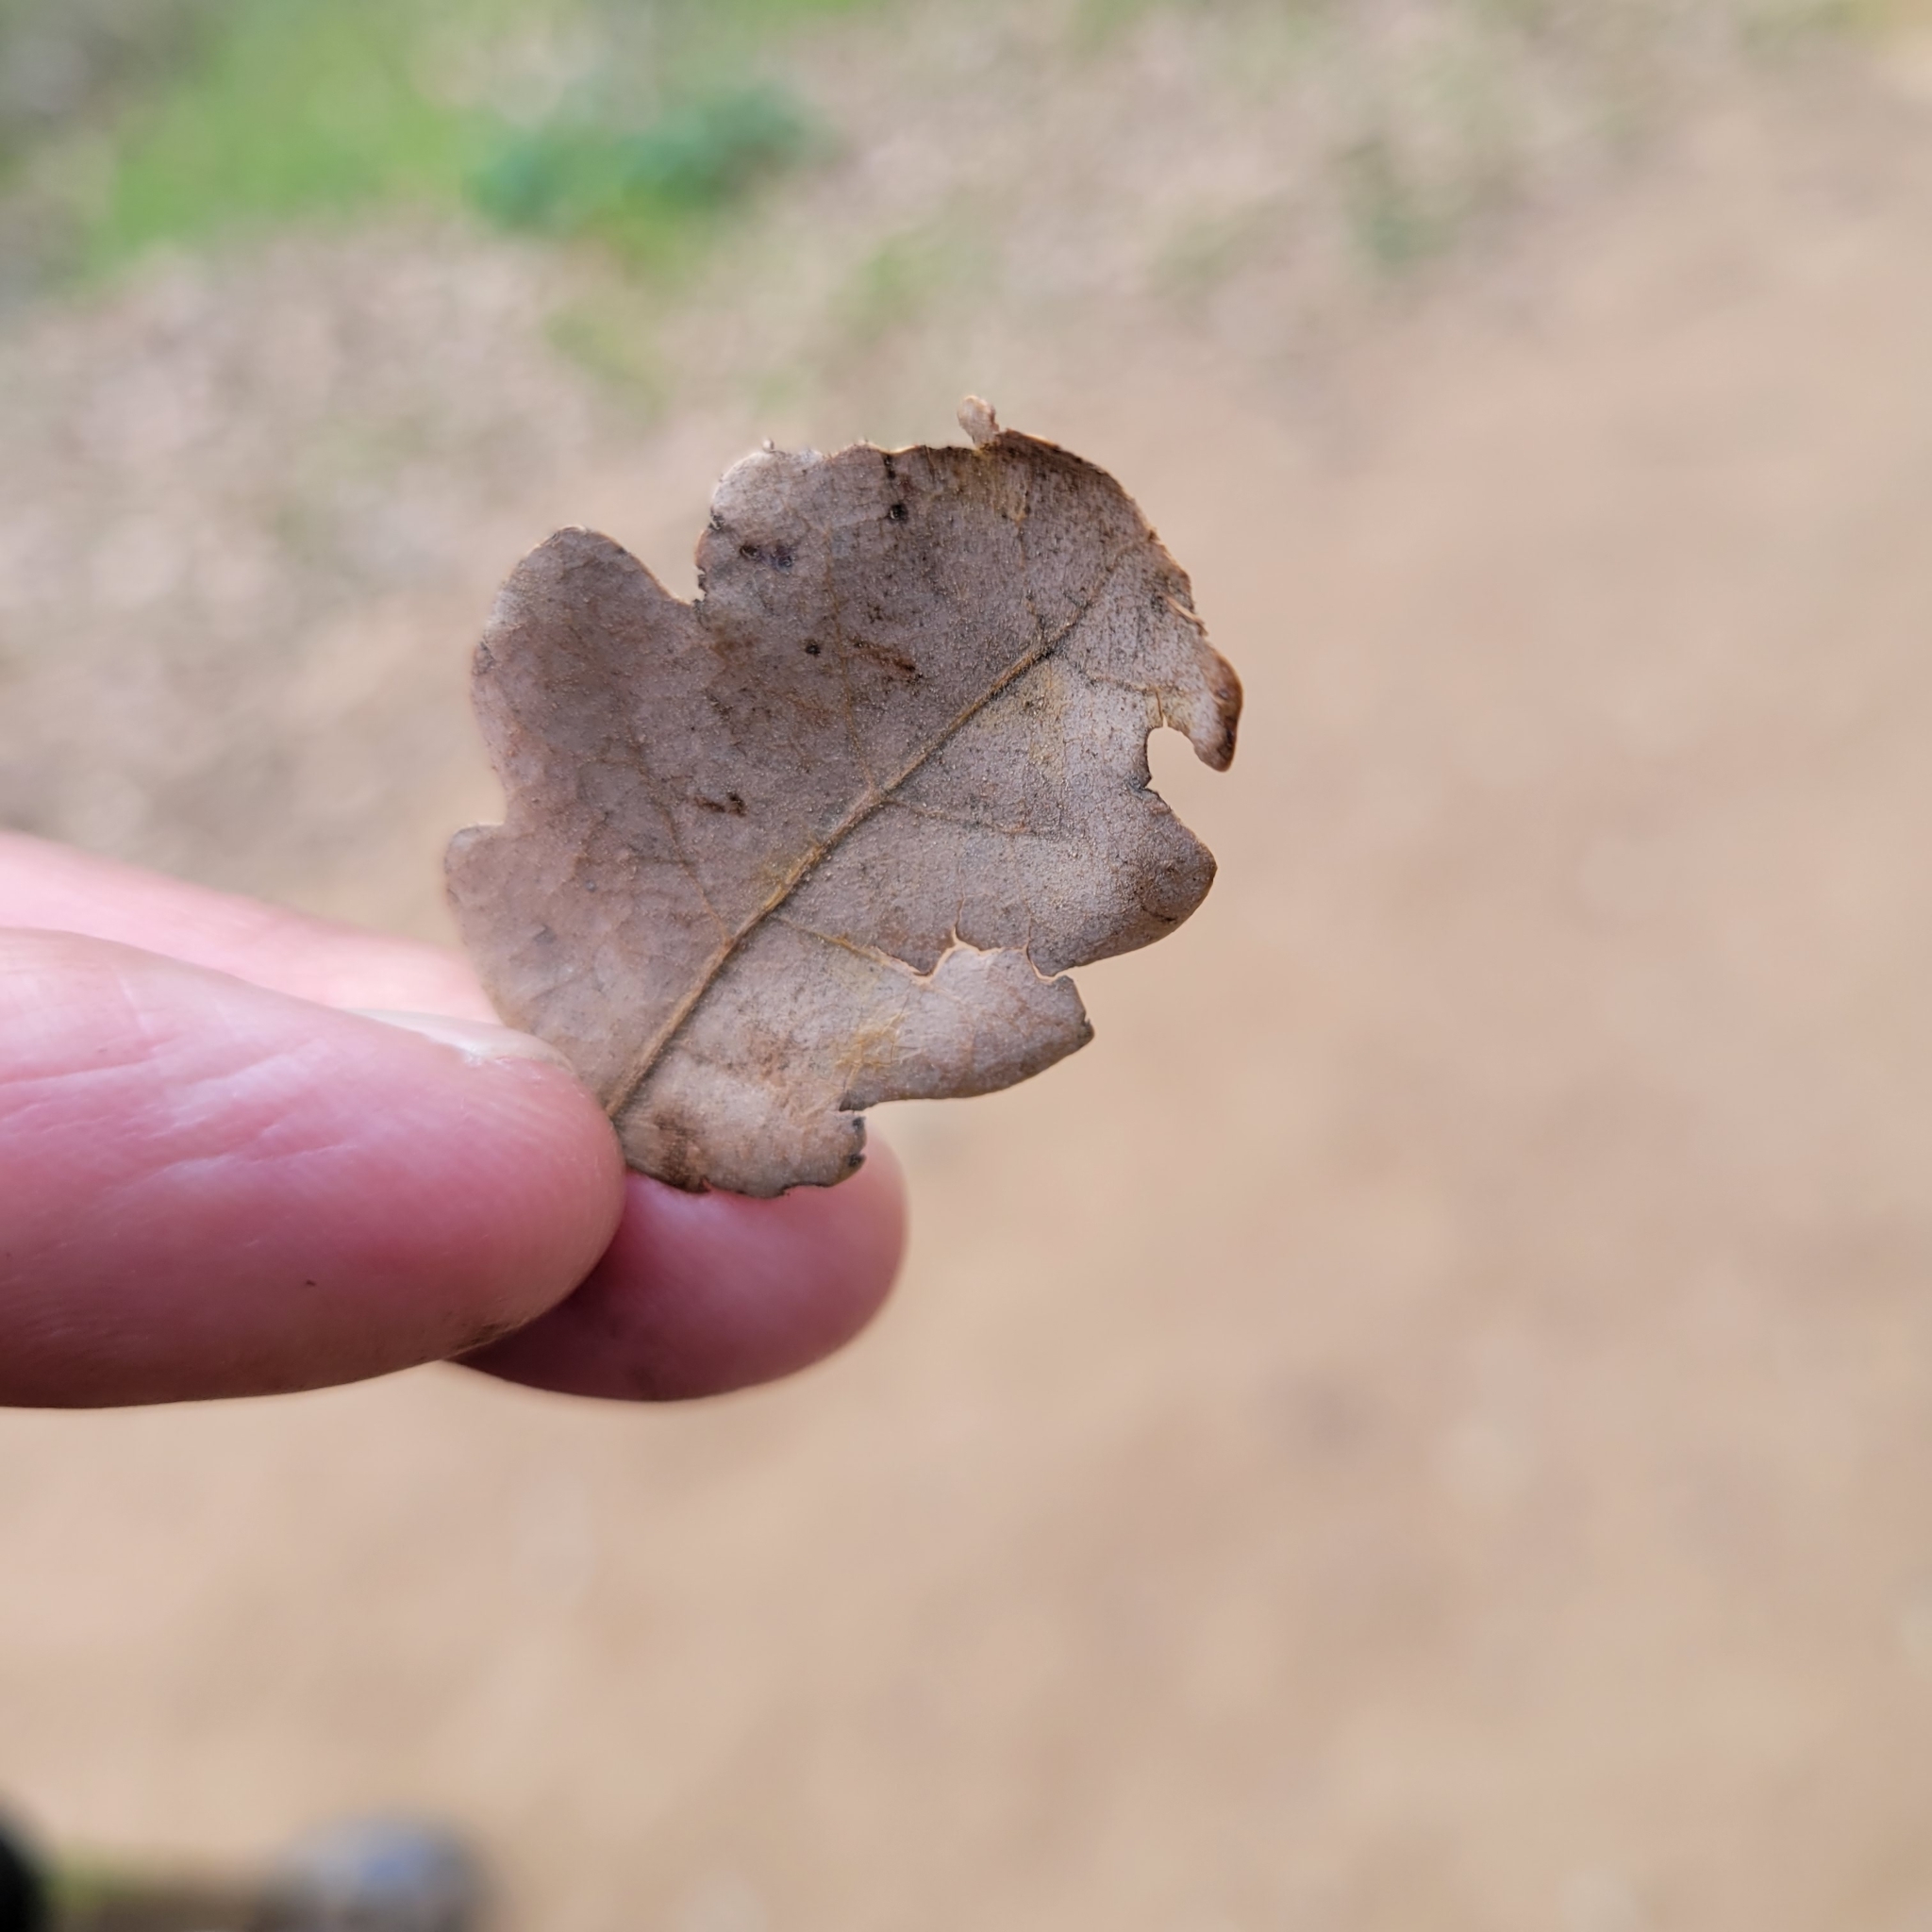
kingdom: Plantae
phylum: Tracheophyta
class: Magnoliopsida
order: Fagales
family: Fagaceae
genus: Quercus
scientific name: Quercus douglasii
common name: Blue oak
